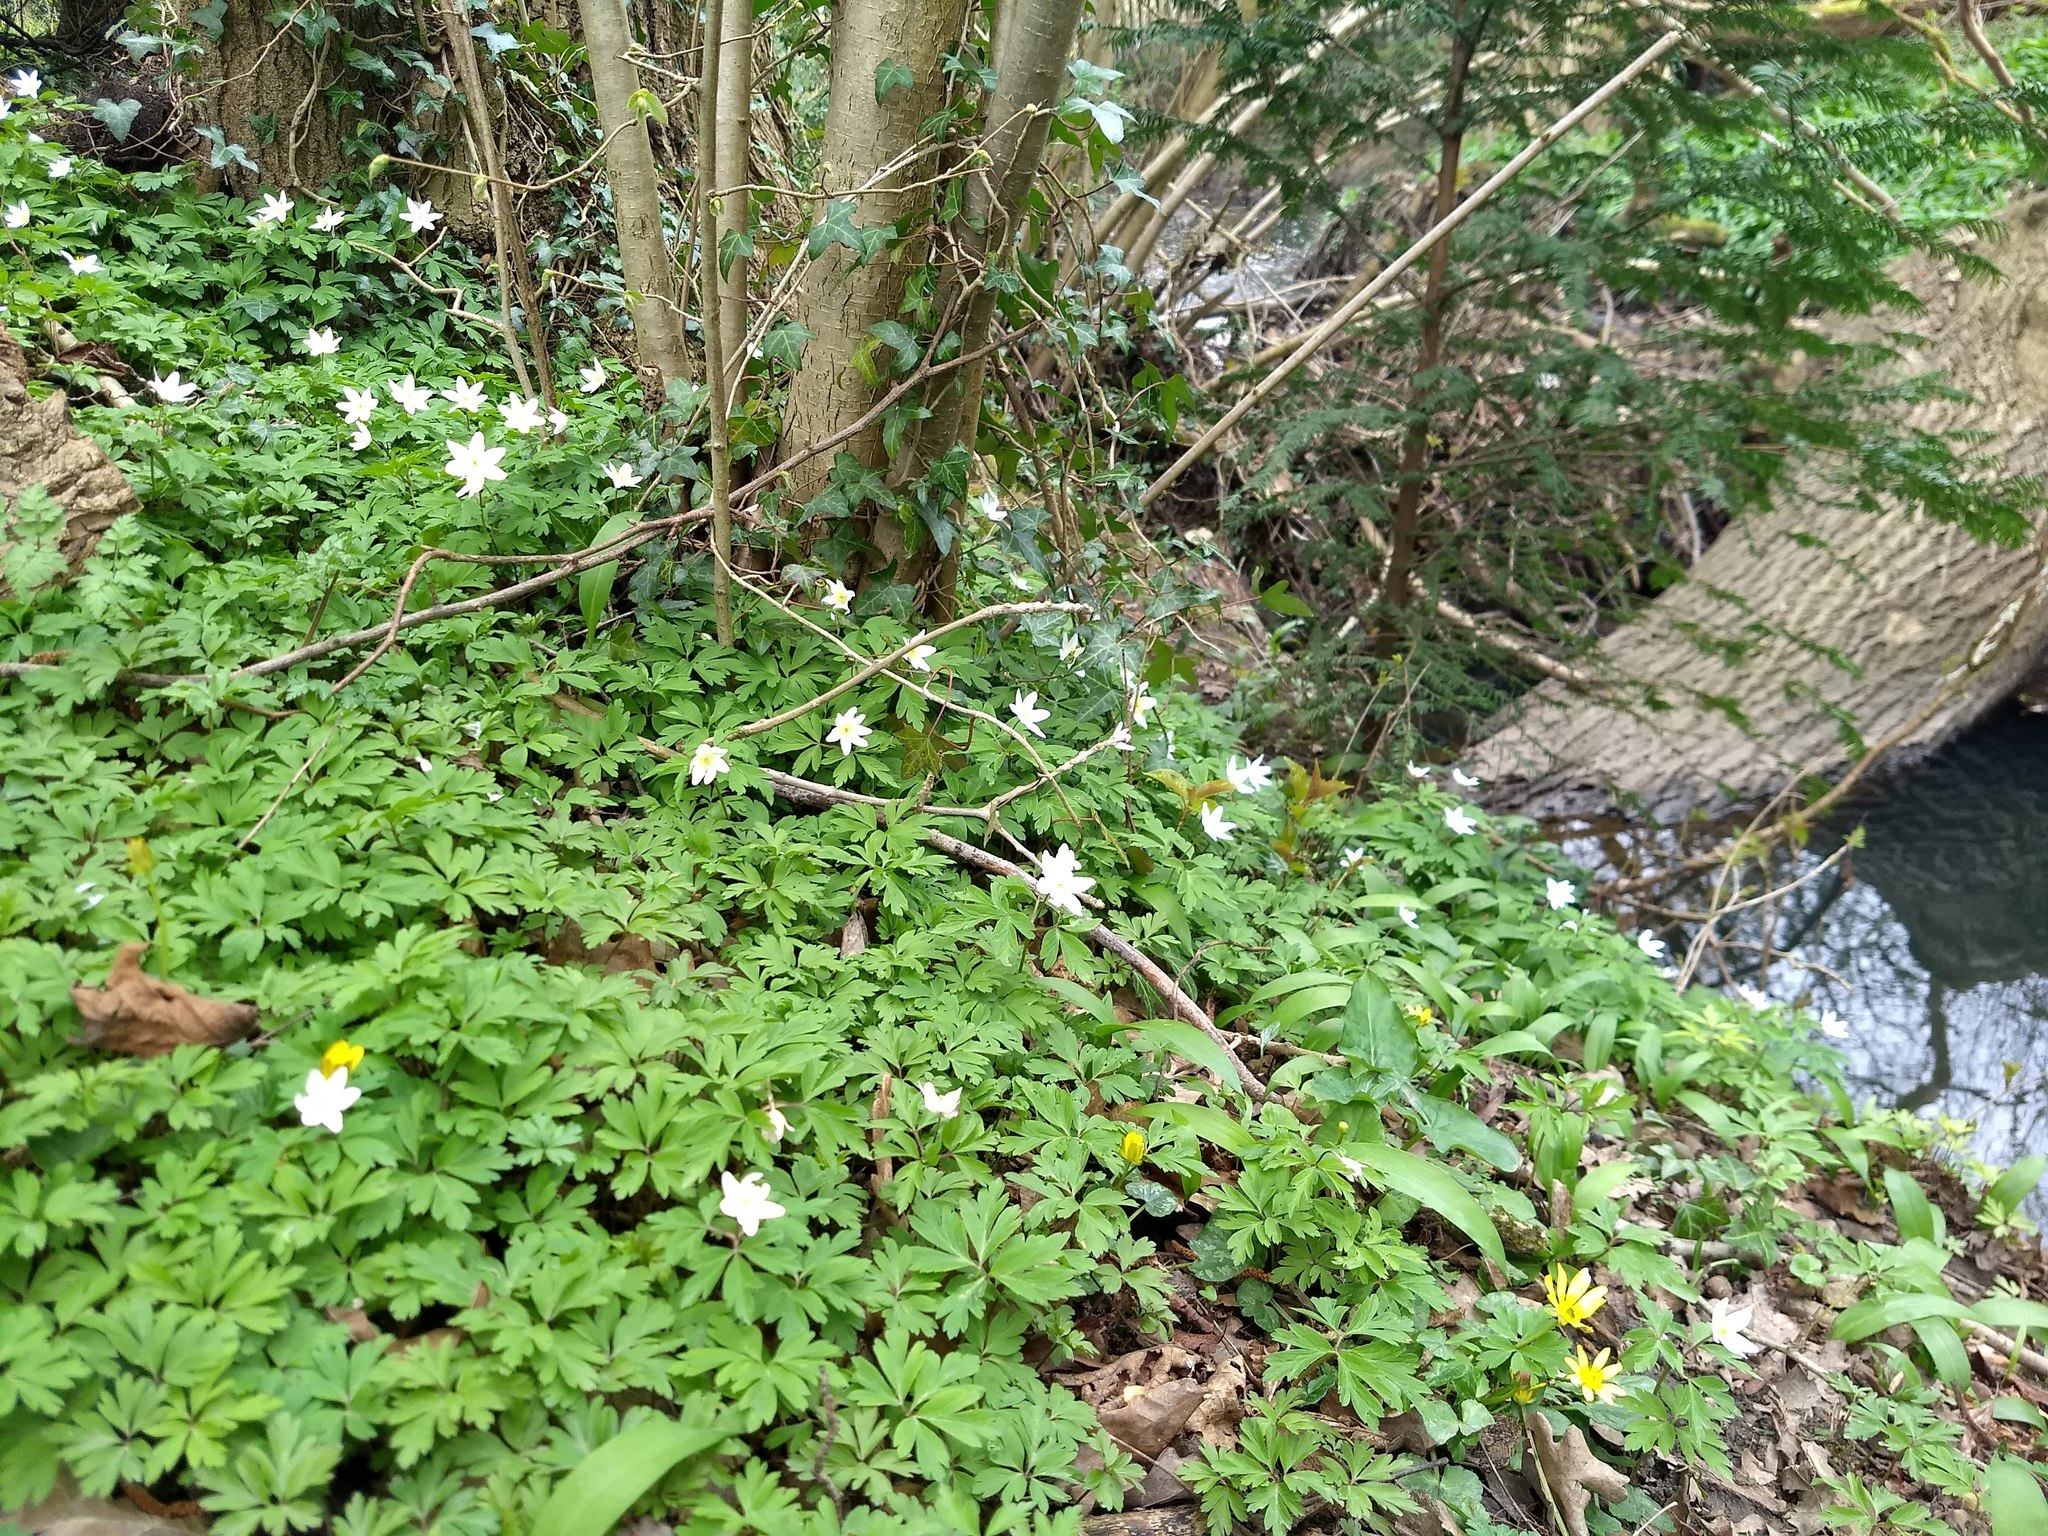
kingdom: Plantae
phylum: Tracheophyta
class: Magnoliopsida
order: Ranunculales
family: Ranunculaceae
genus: Anemone
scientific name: Anemone nemorosa
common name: Wood anemone
